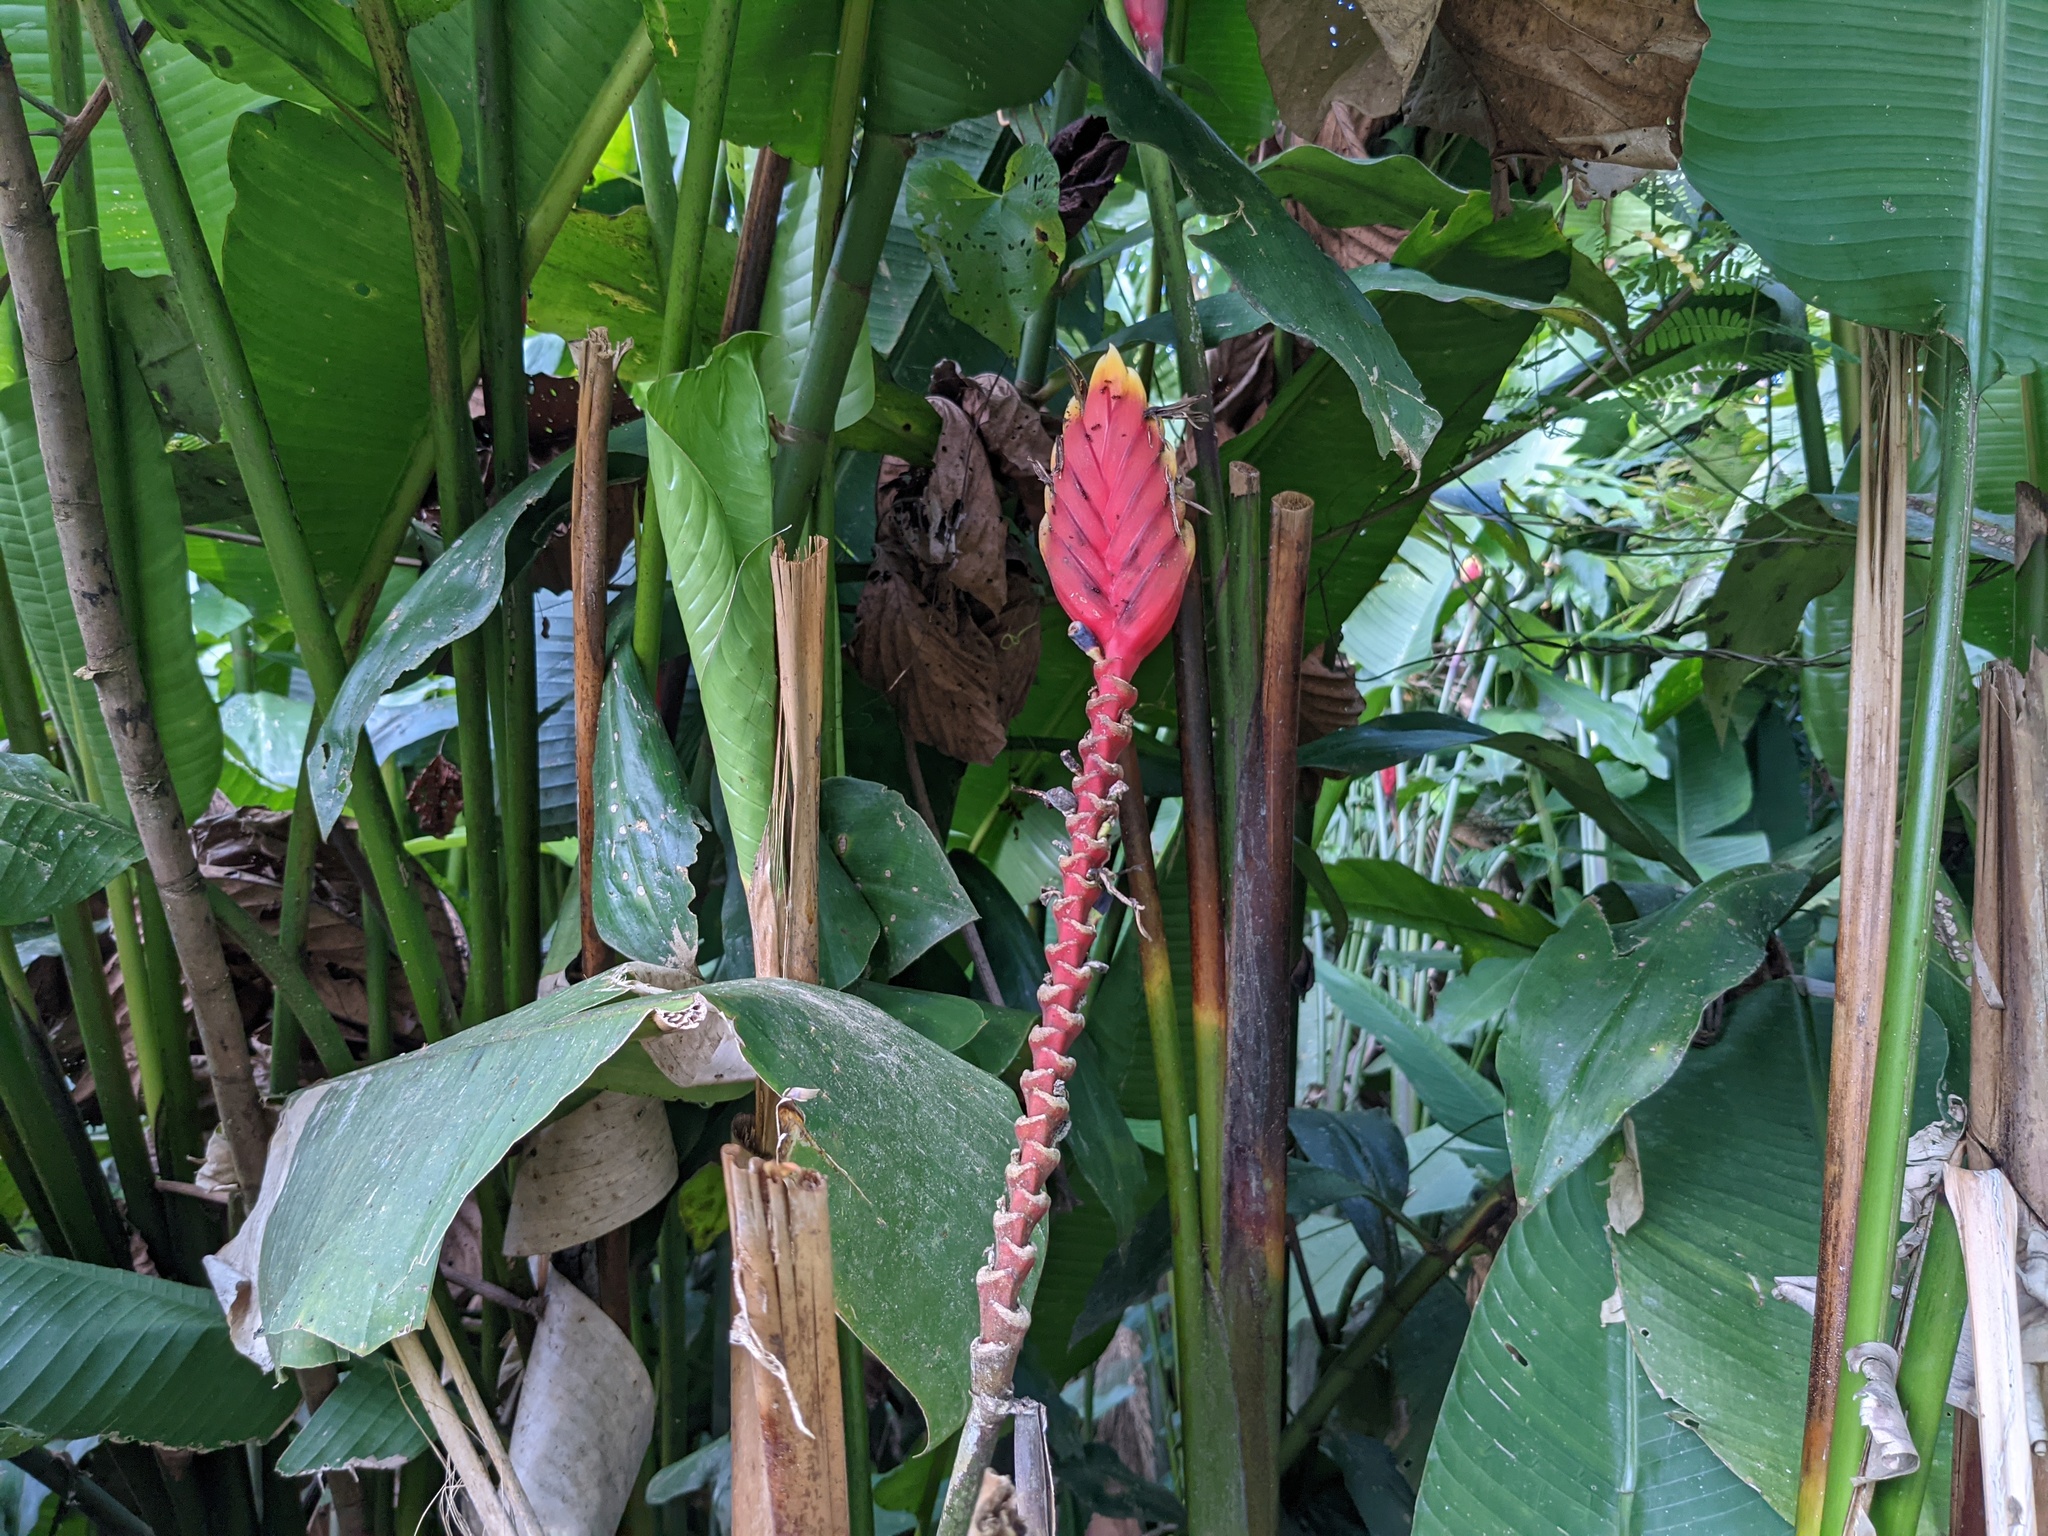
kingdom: Plantae
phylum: Tracheophyta
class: Liliopsida
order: Zingiberales
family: Heliconiaceae
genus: Heliconia
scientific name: Heliconia episcopalis
